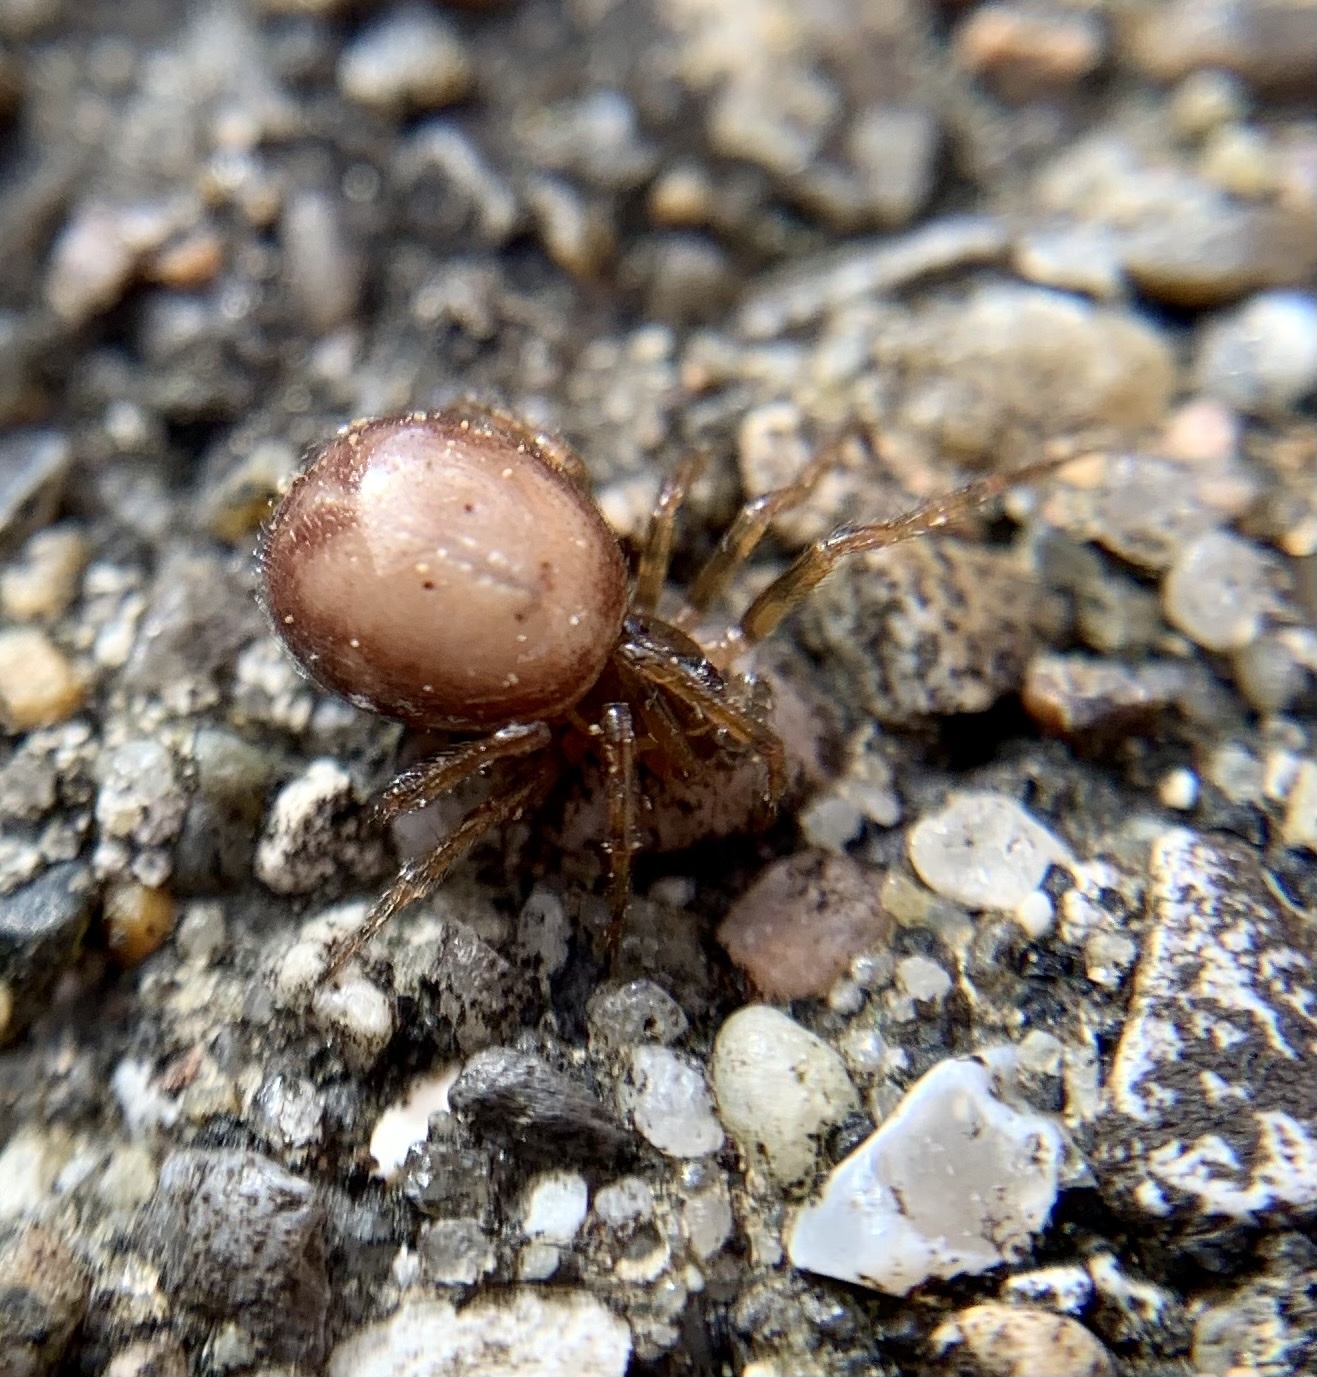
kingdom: Animalia
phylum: Arthropoda
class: Arachnida
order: Araneae
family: Theridiidae
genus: Steatoda
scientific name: Steatoda bipunctata
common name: False widow
